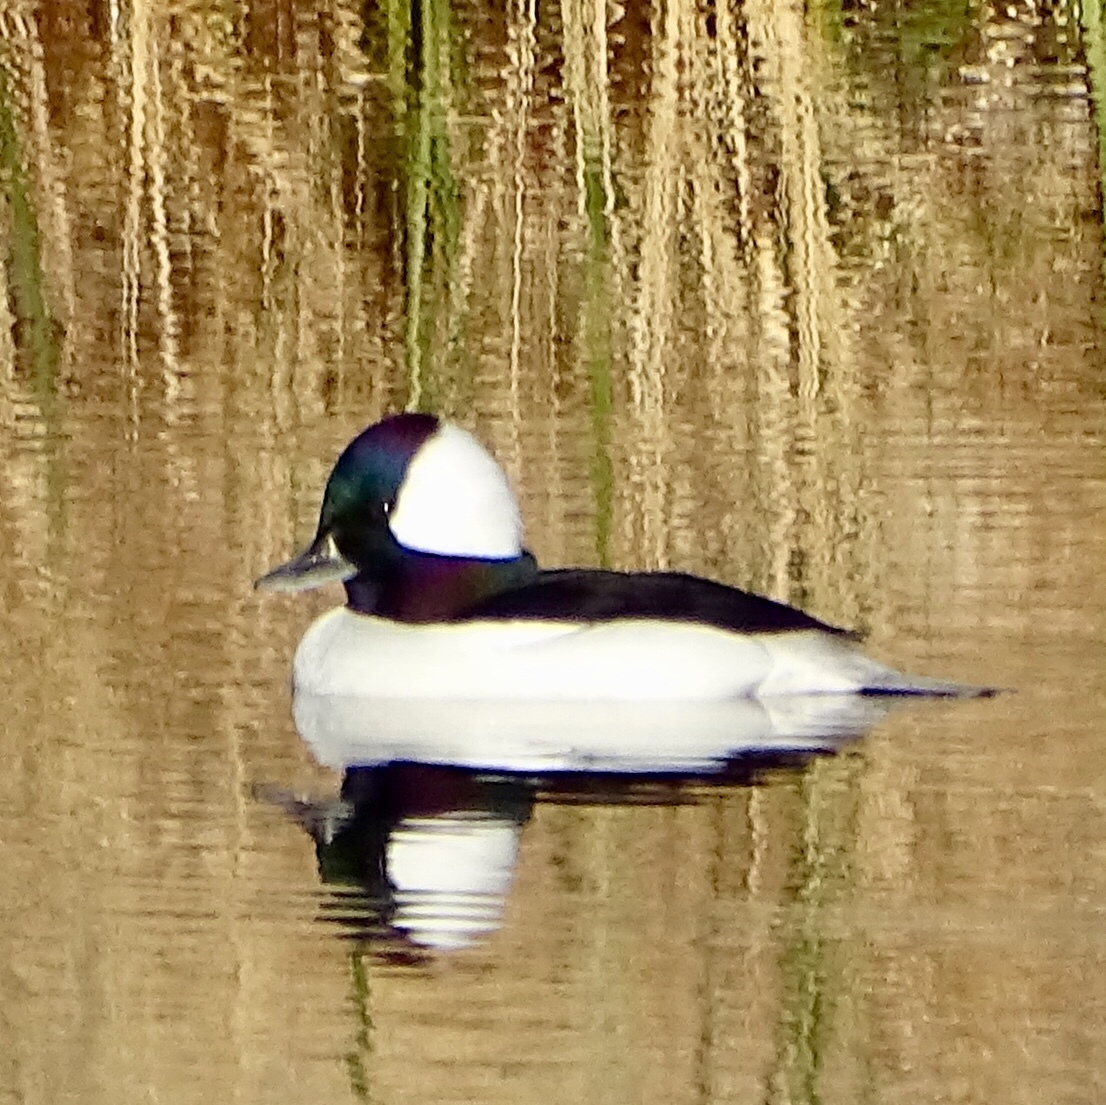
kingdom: Animalia
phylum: Chordata
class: Aves
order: Anseriformes
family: Anatidae
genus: Bucephala
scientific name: Bucephala albeola
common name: Bufflehead
